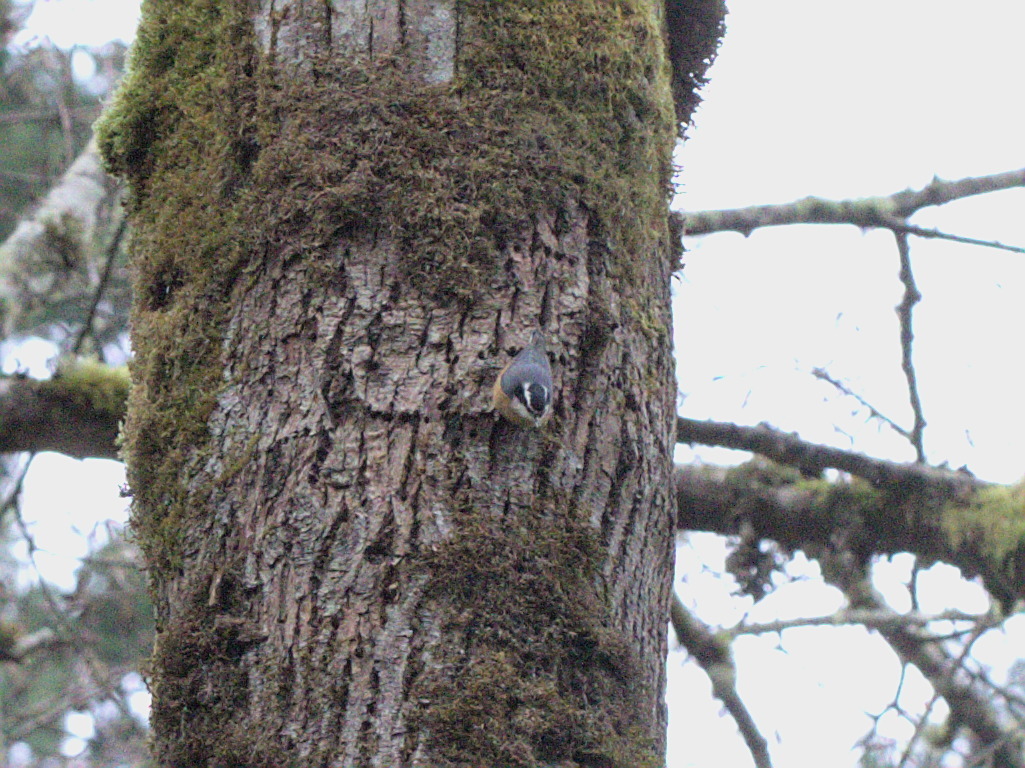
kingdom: Animalia
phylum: Chordata
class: Aves
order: Passeriformes
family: Sittidae
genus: Sitta
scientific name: Sitta canadensis
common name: Red-breasted nuthatch
